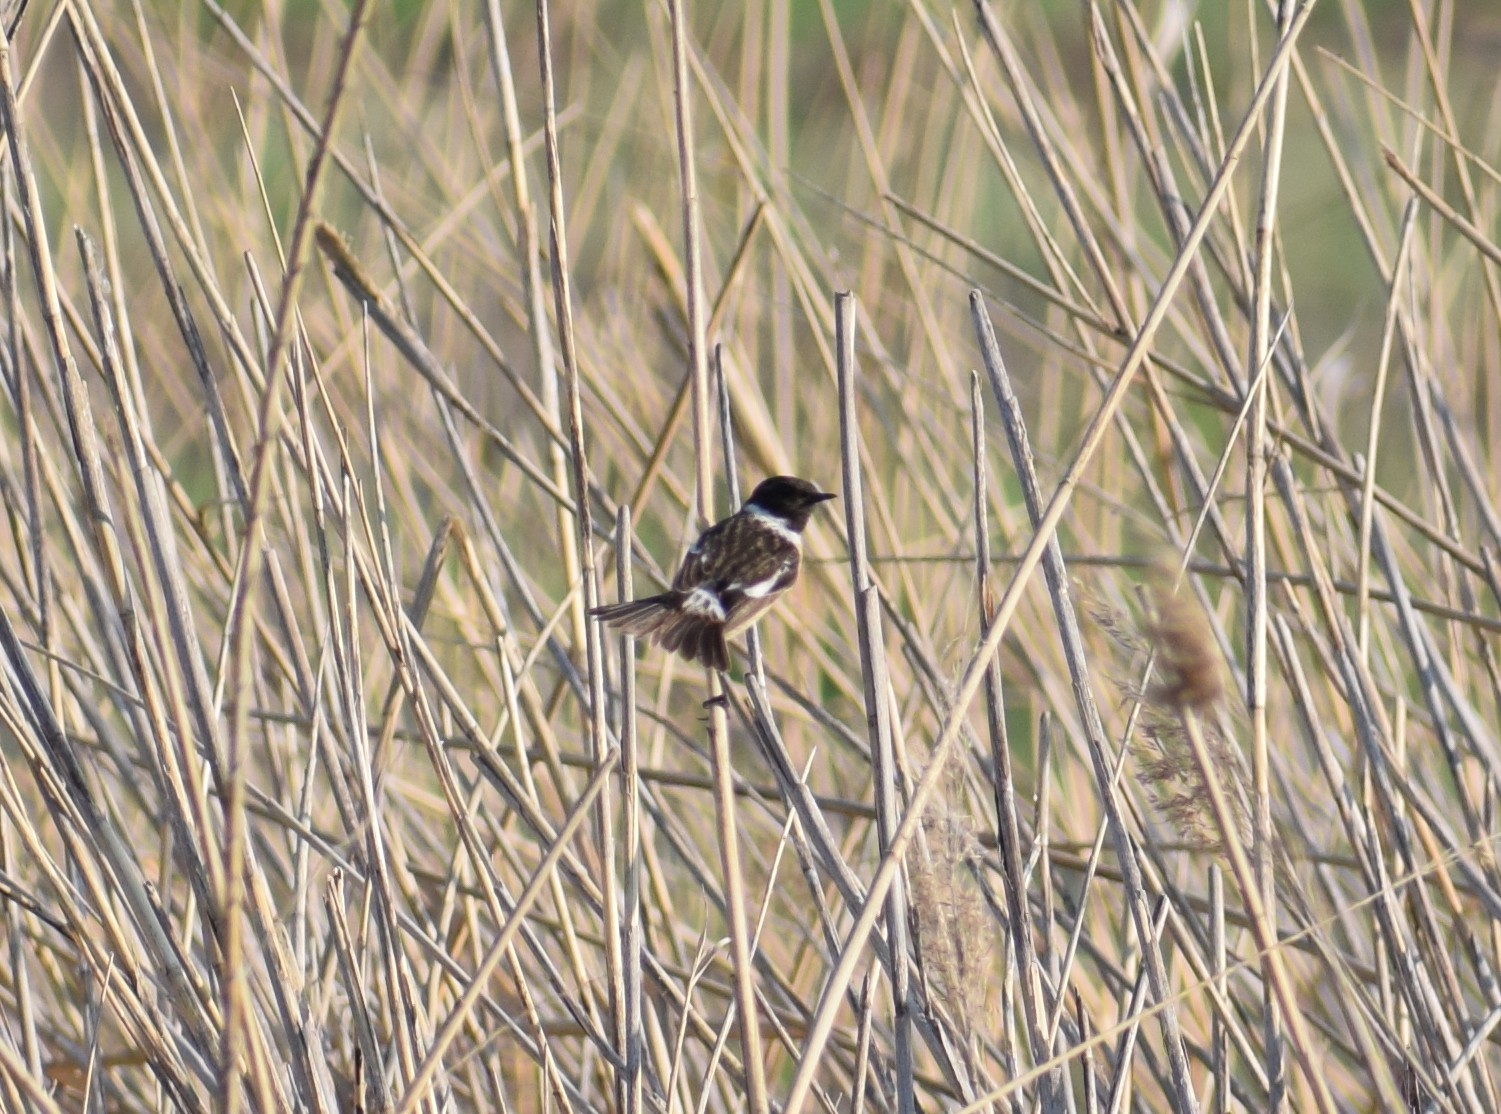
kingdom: Animalia
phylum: Chordata
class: Aves
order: Passeriformes
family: Muscicapidae
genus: Saxicola
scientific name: Saxicola rubicola
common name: European stonechat
